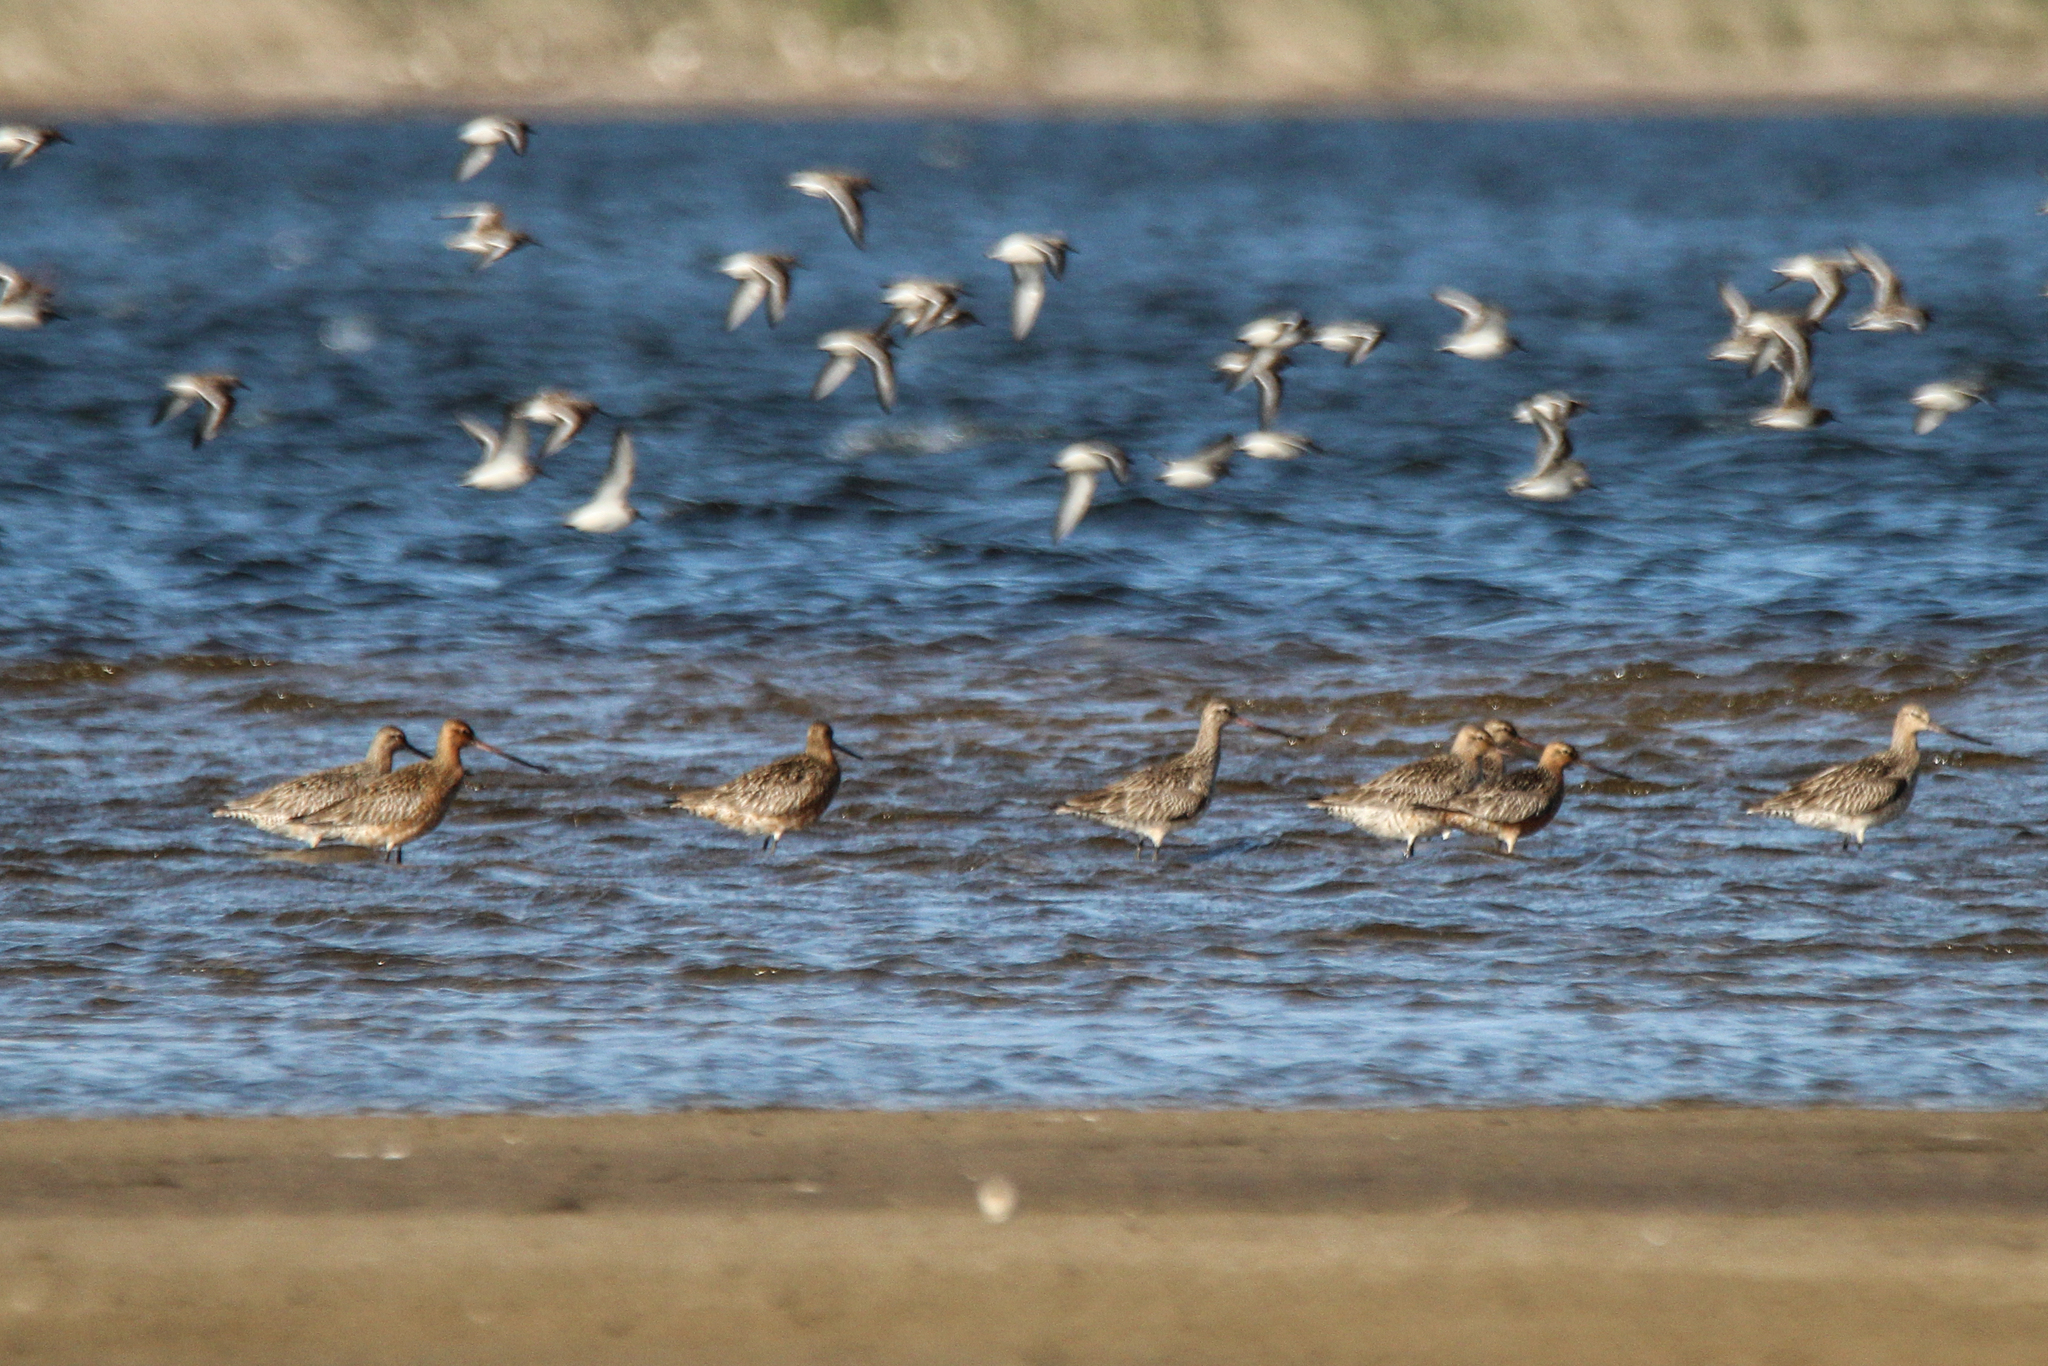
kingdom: Animalia
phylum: Chordata
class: Aves
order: Charadriiformes
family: Scolopacidae
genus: Limosa
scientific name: Limosa lapponica
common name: Bar-tailed godwit
